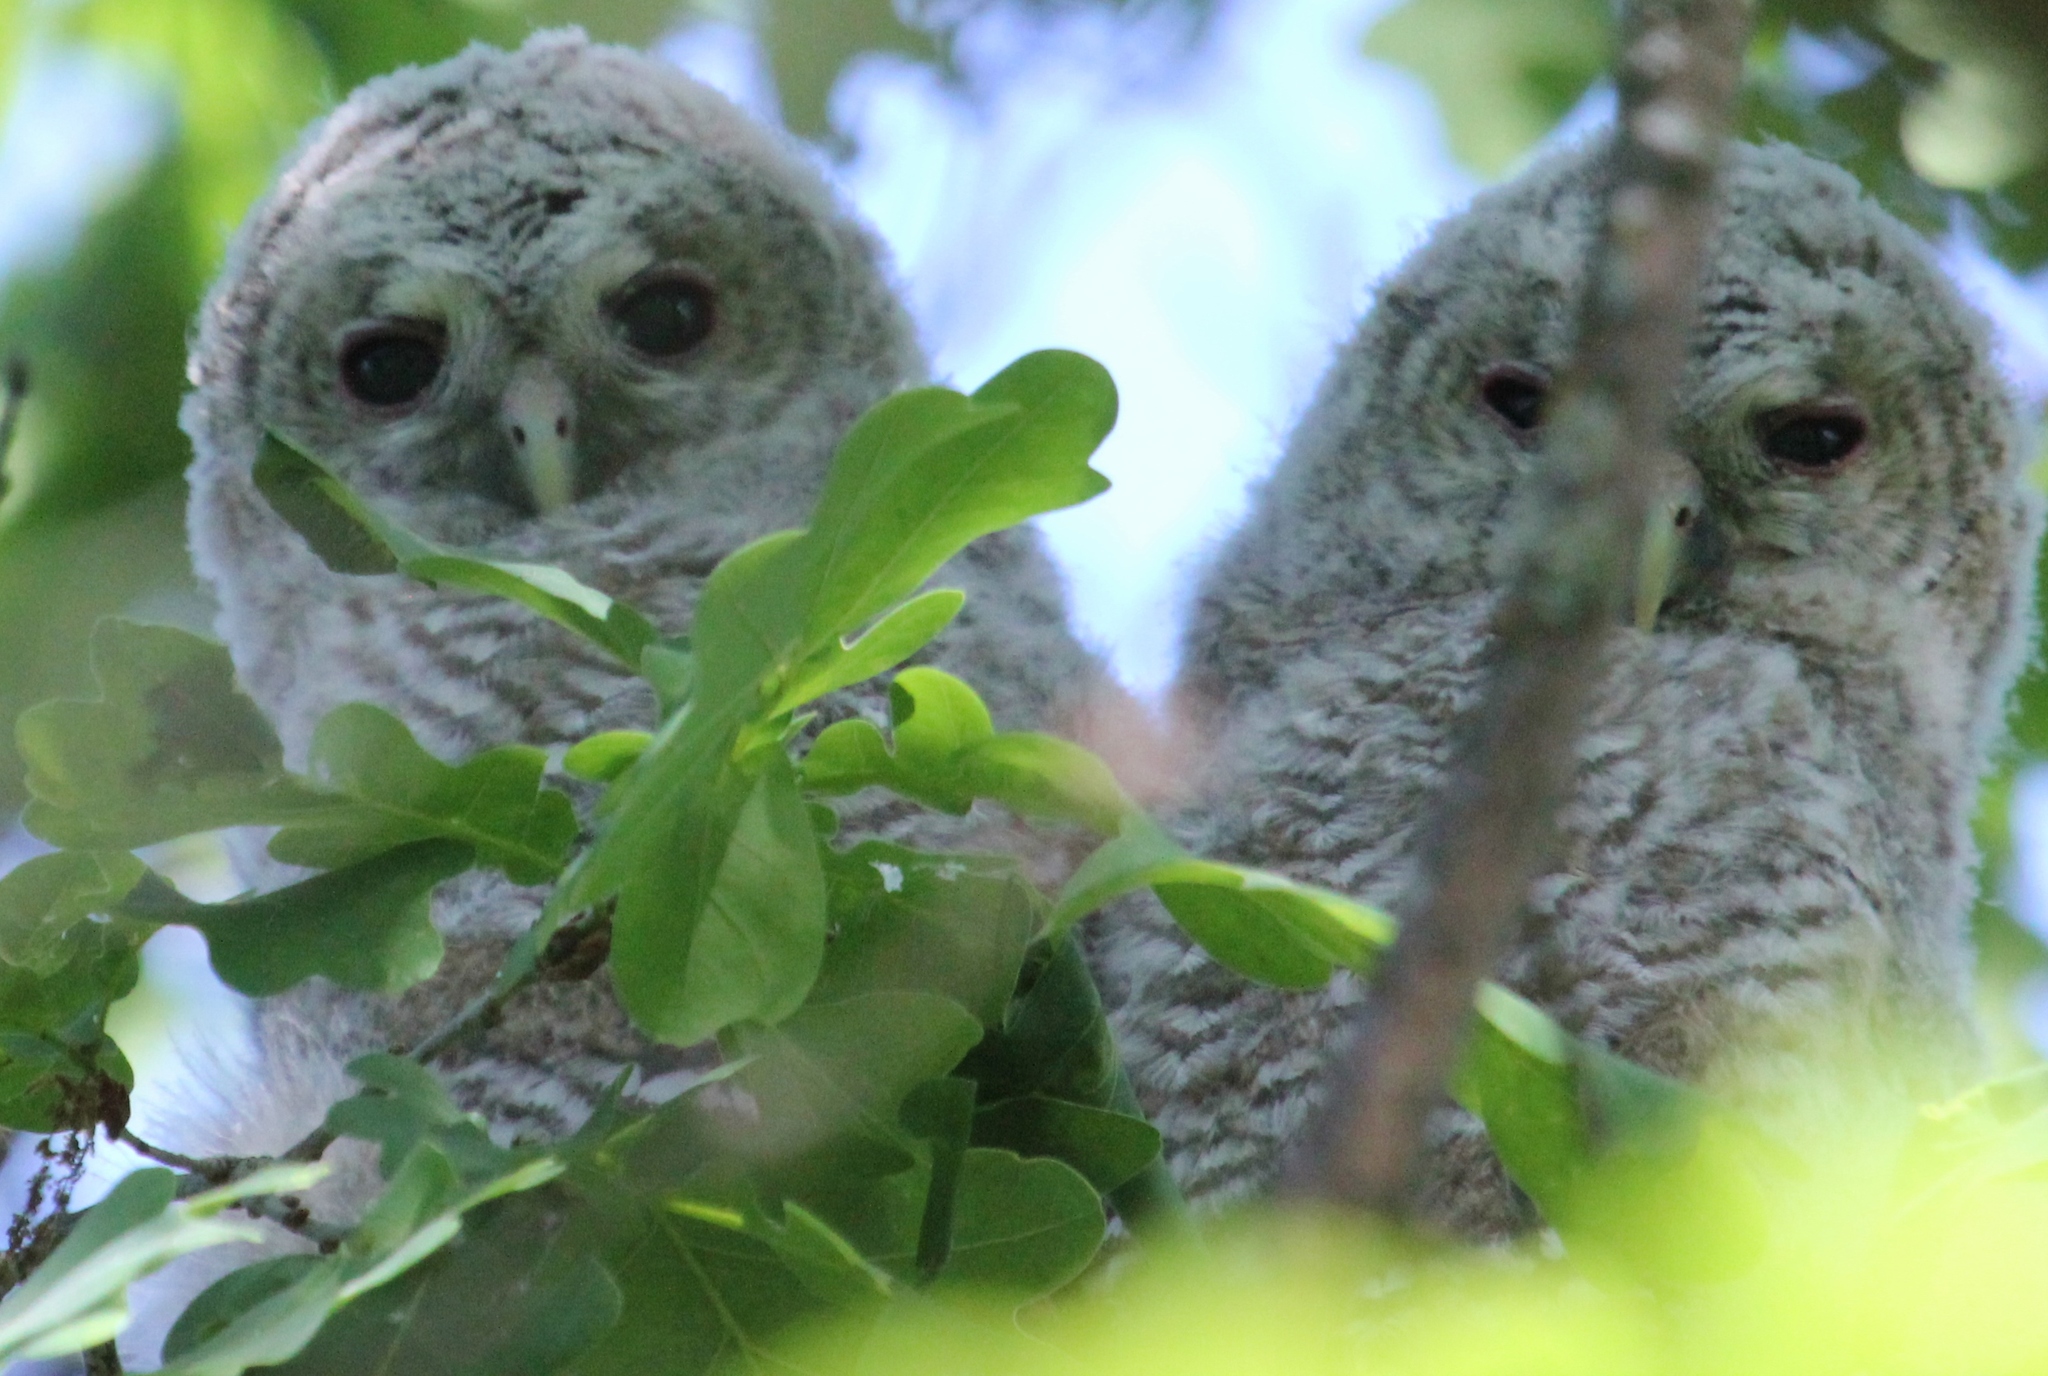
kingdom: Animalia
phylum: Chordata
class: Aves
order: Strigiformes
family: Strigidae
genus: Strix
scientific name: Strix aluco
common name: Tawny owl
